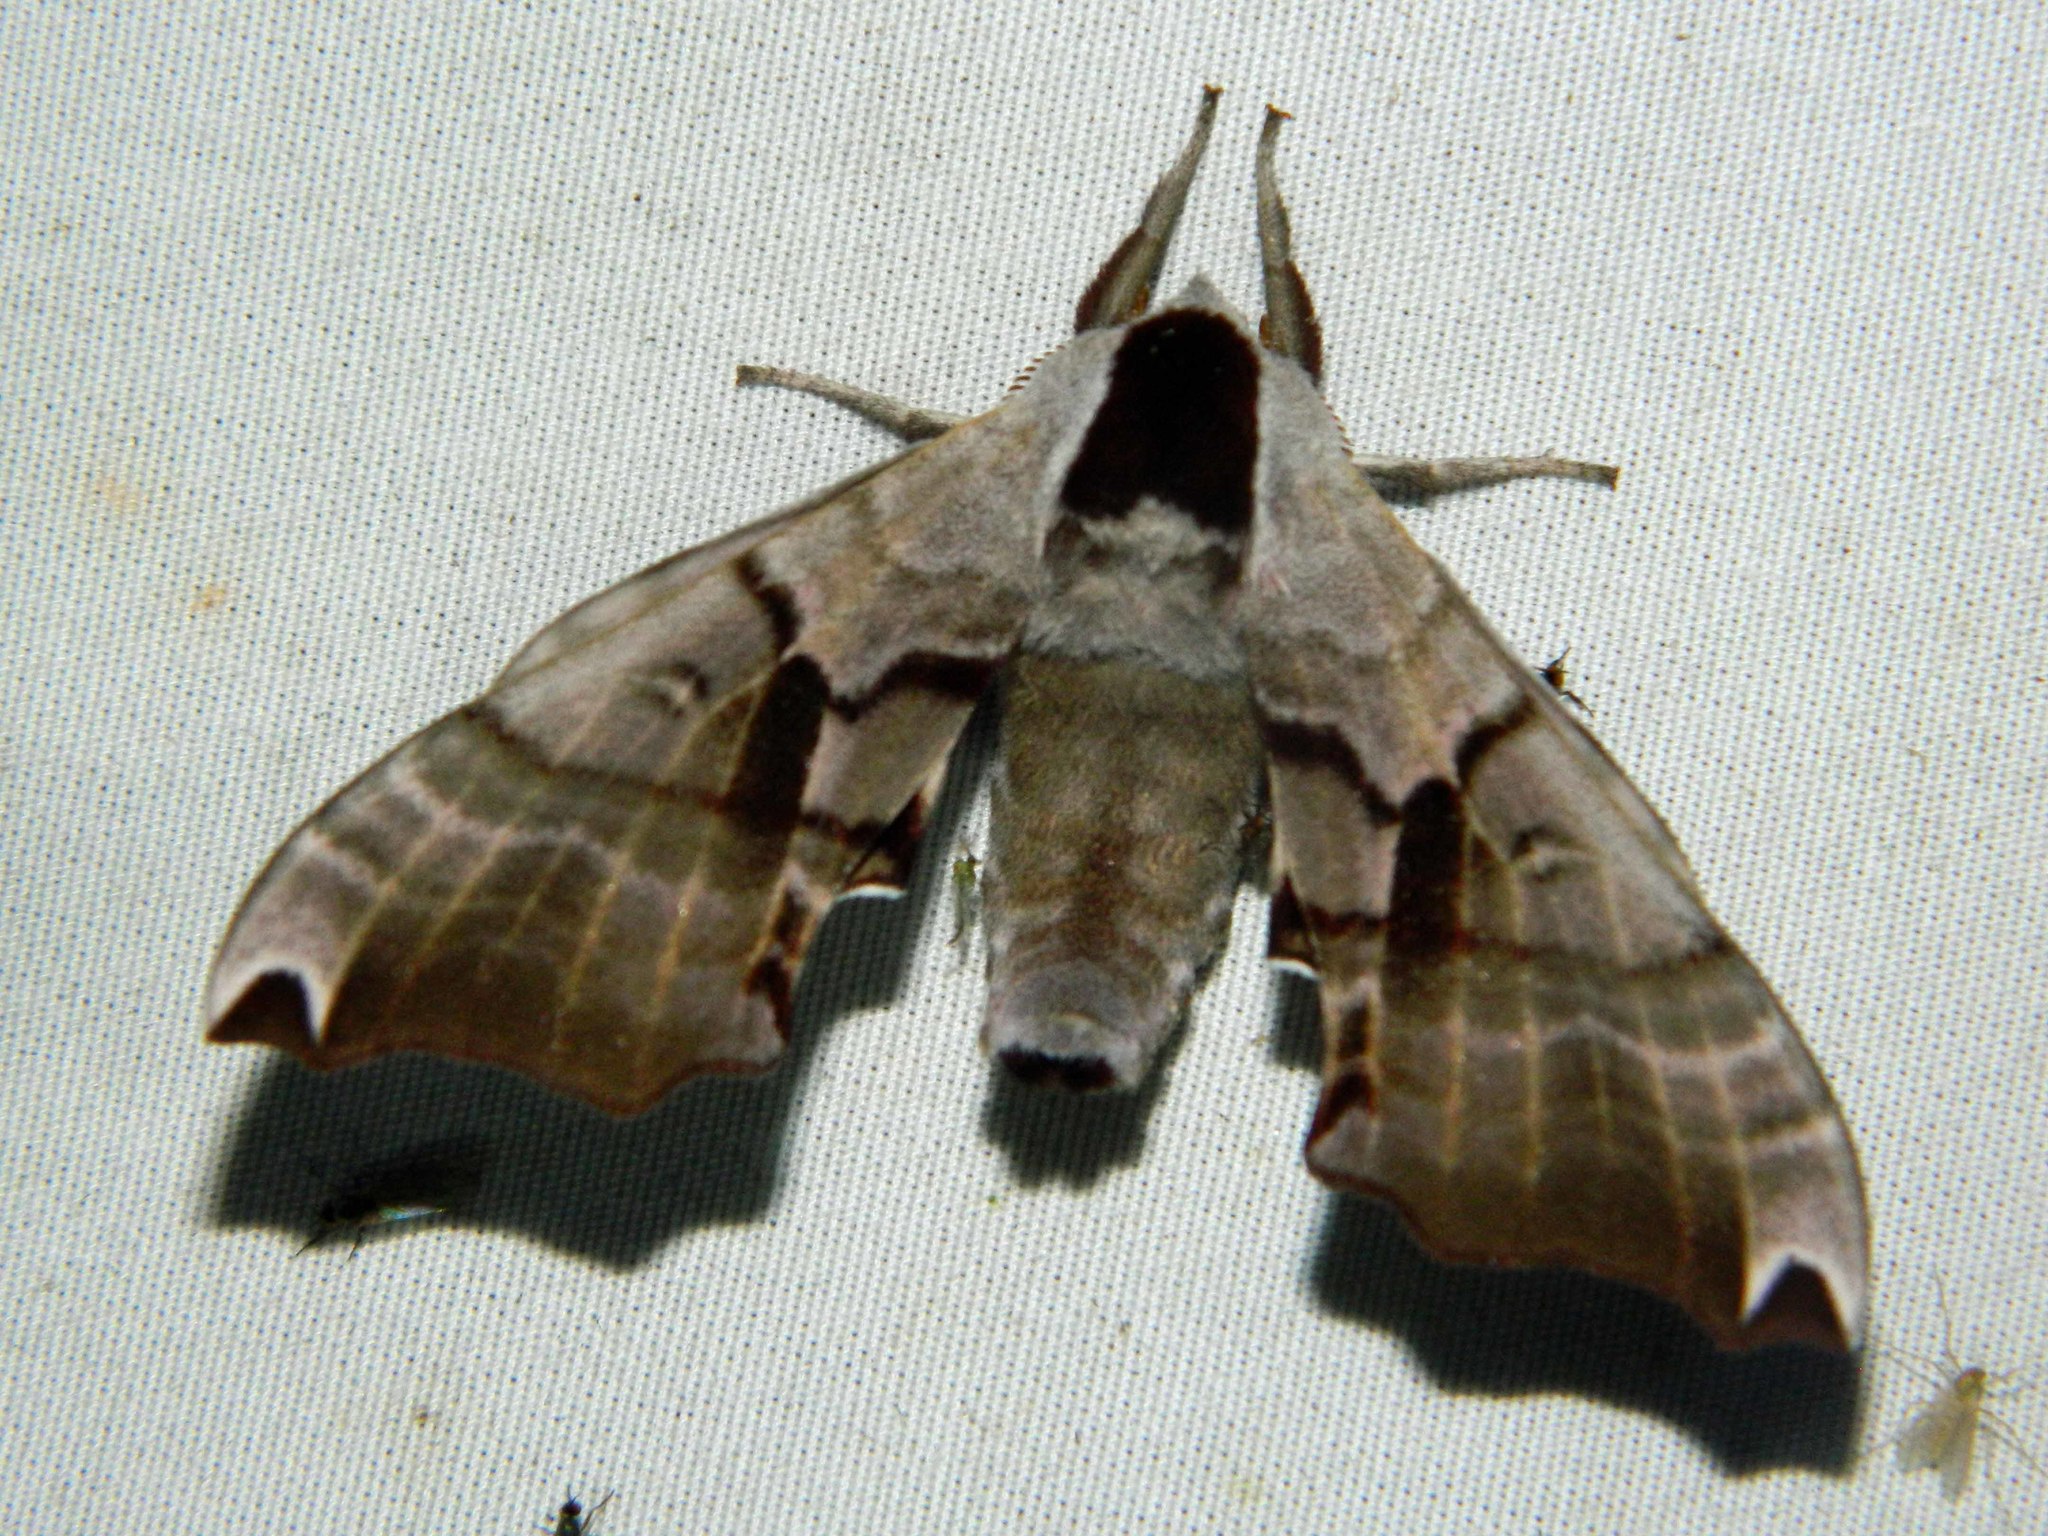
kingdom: Animalia
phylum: Arthropoda
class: Insecta
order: Lepidoptera
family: Sphingidae
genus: Smerinthus
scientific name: Smerinthus jamaicensis
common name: Twin spotted sphinx
